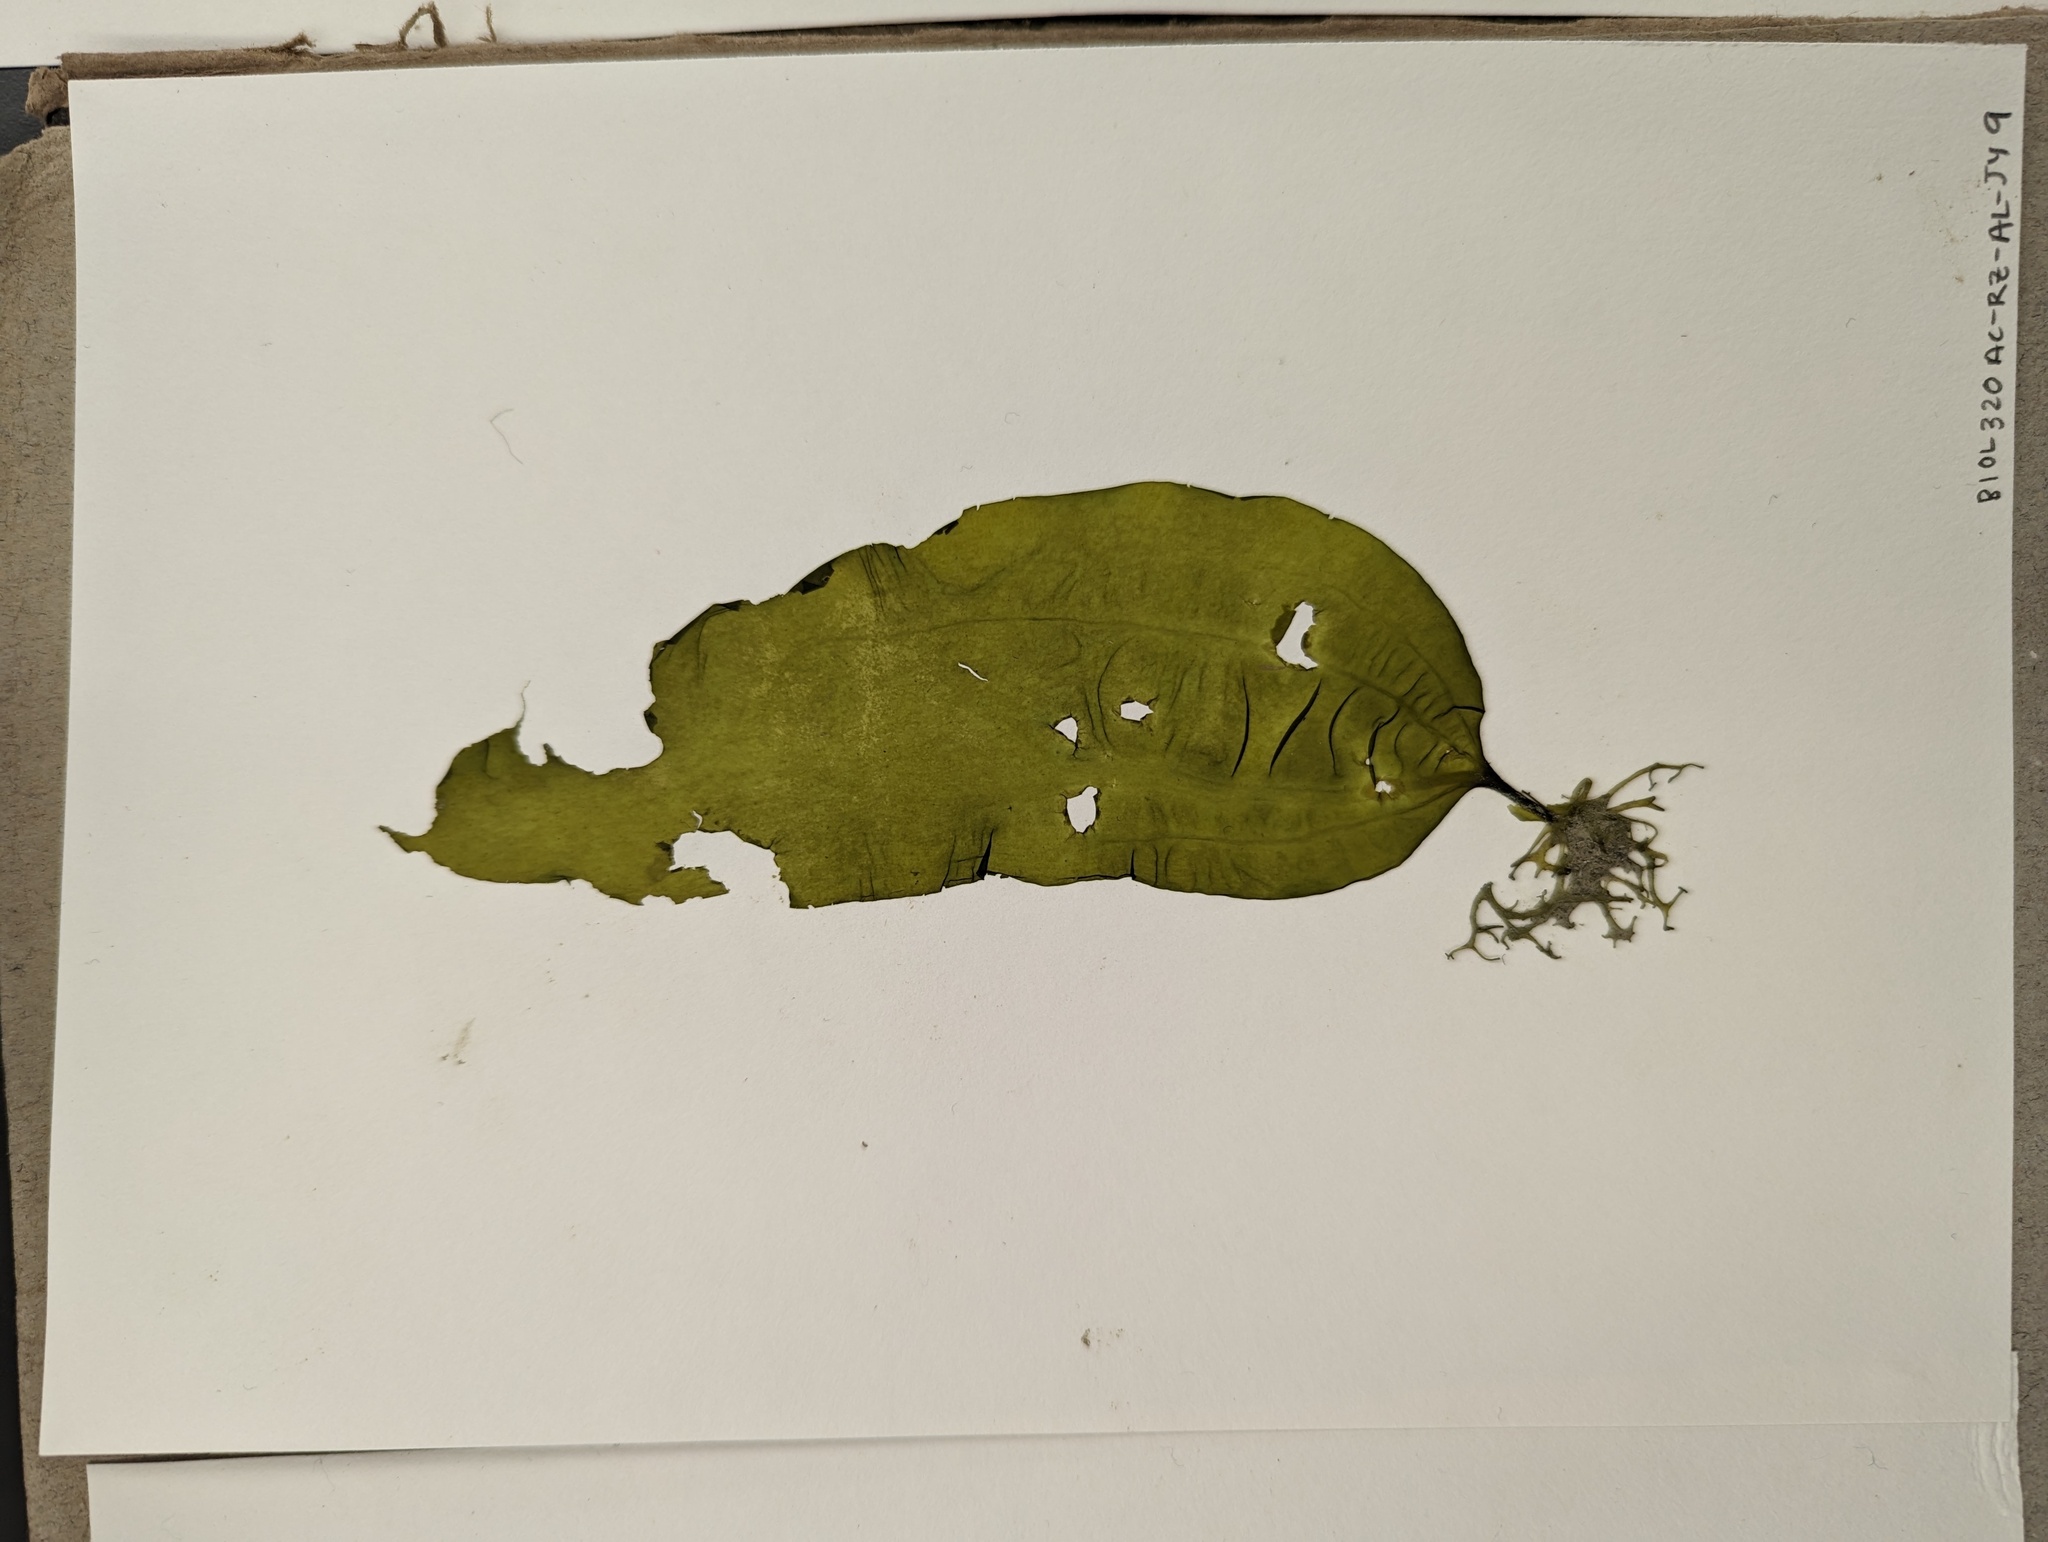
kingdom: Chromista
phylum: Ochrophyta
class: Phaeophyceae
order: Laminariales
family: Costariaceae
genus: Costaria
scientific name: Costaria costata
